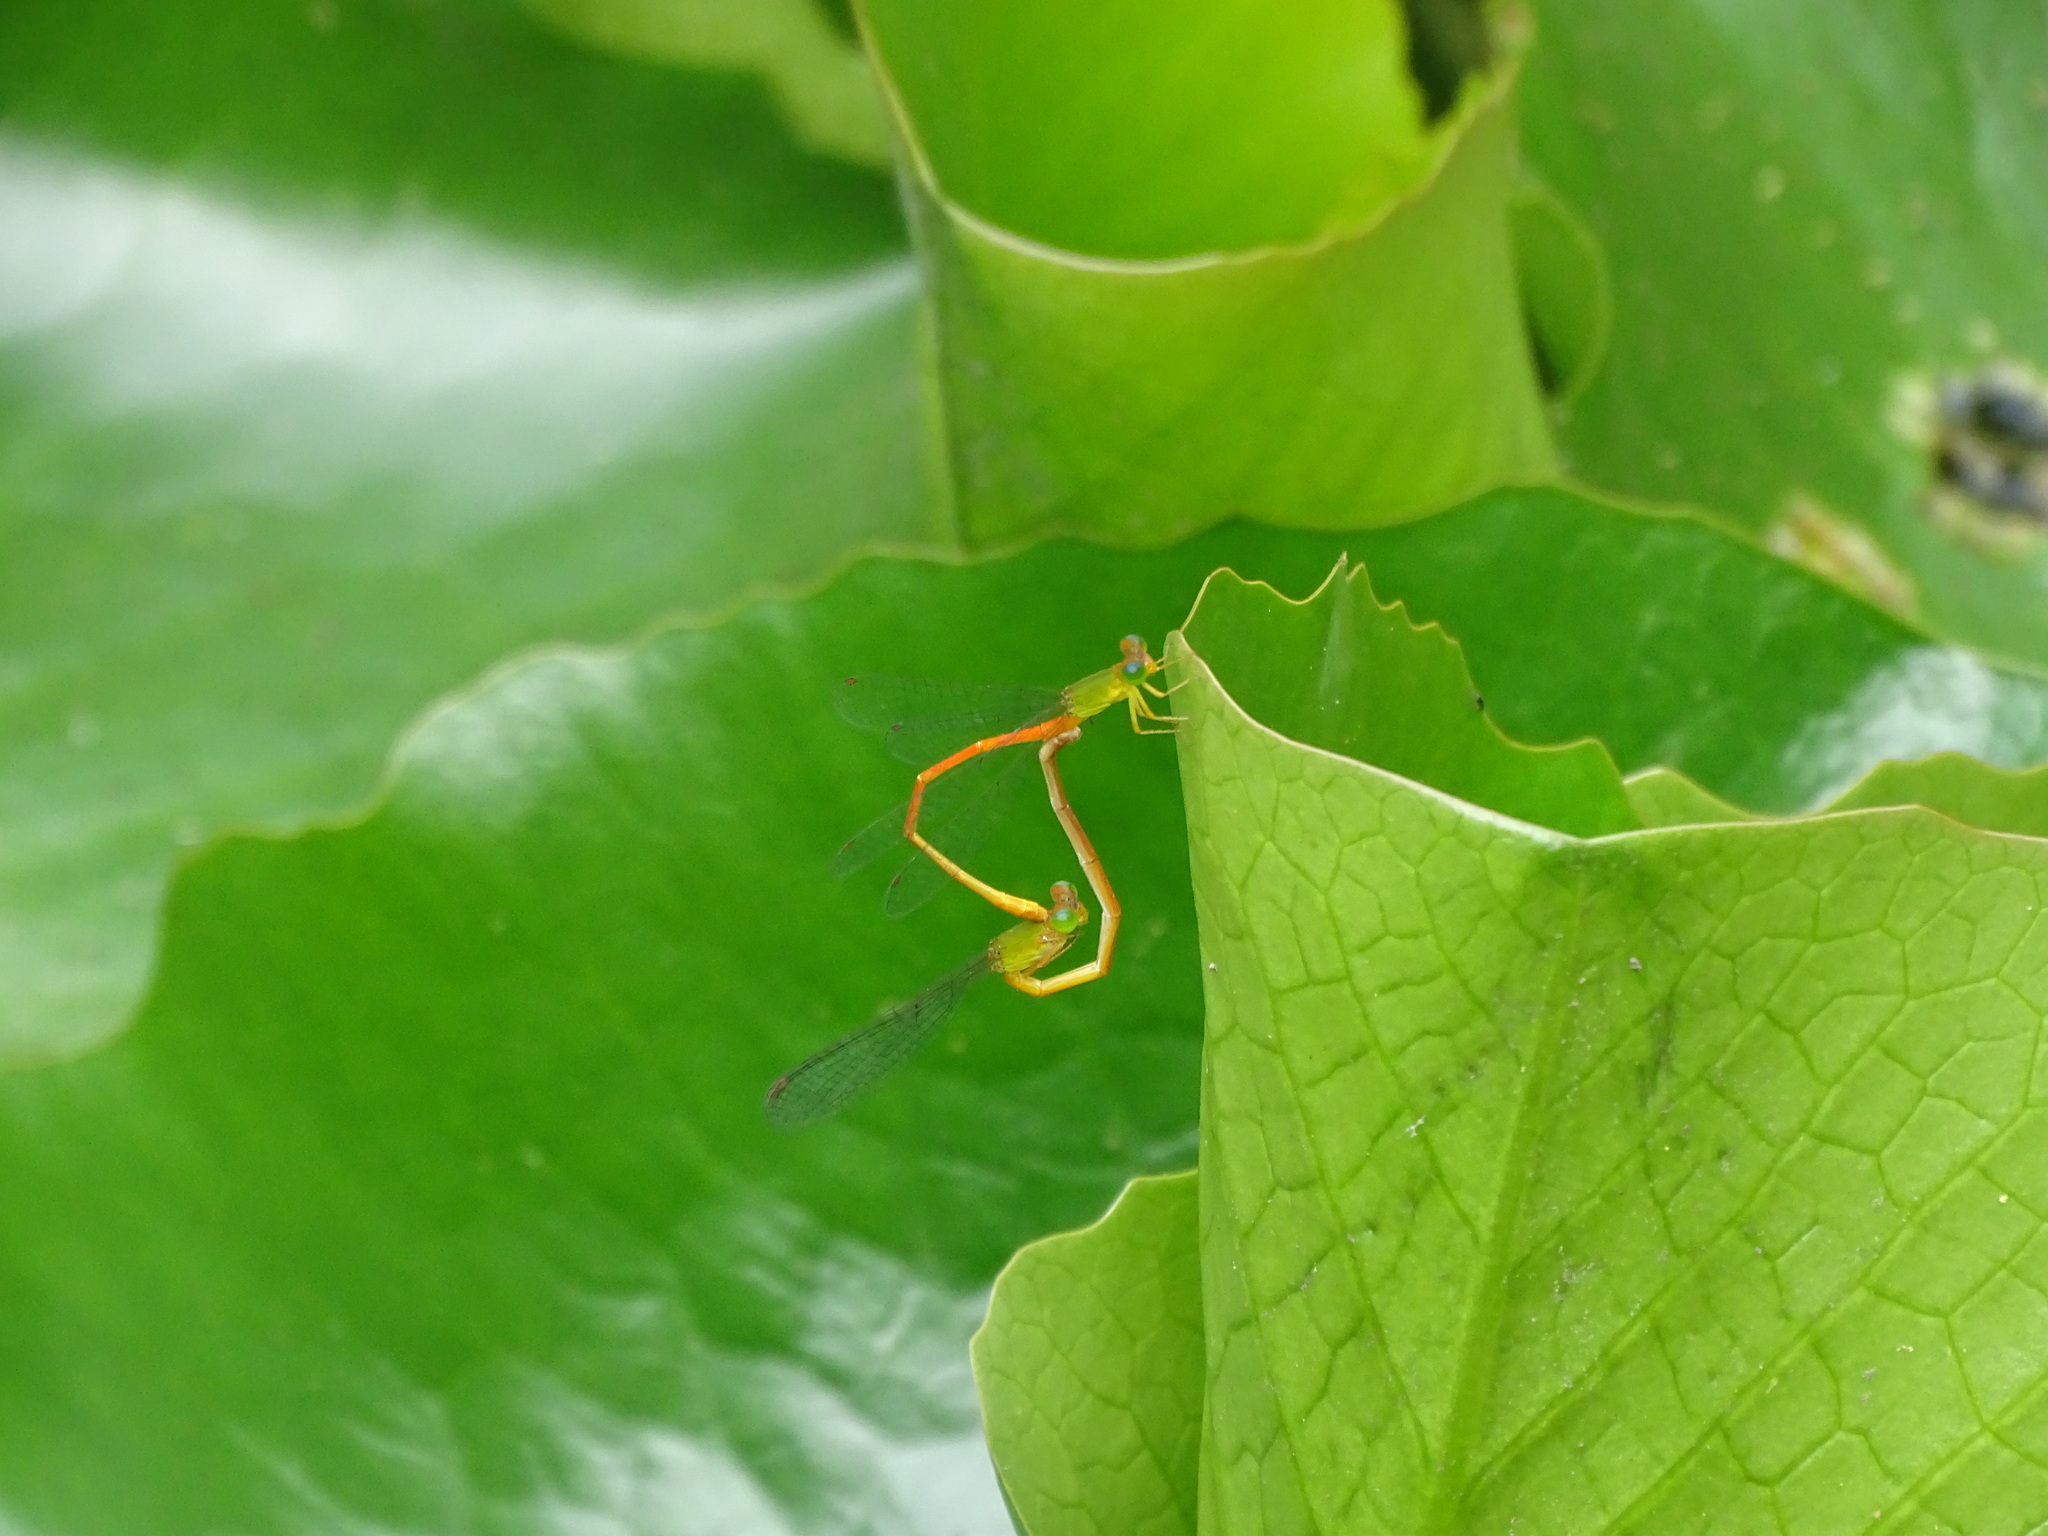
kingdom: Animalia
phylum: Arthropoda
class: Insecta
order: Odonata
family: Coenagrionidae
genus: Ceriagrion
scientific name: Ceriagrion auranticum
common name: Orange-tailed sprite
